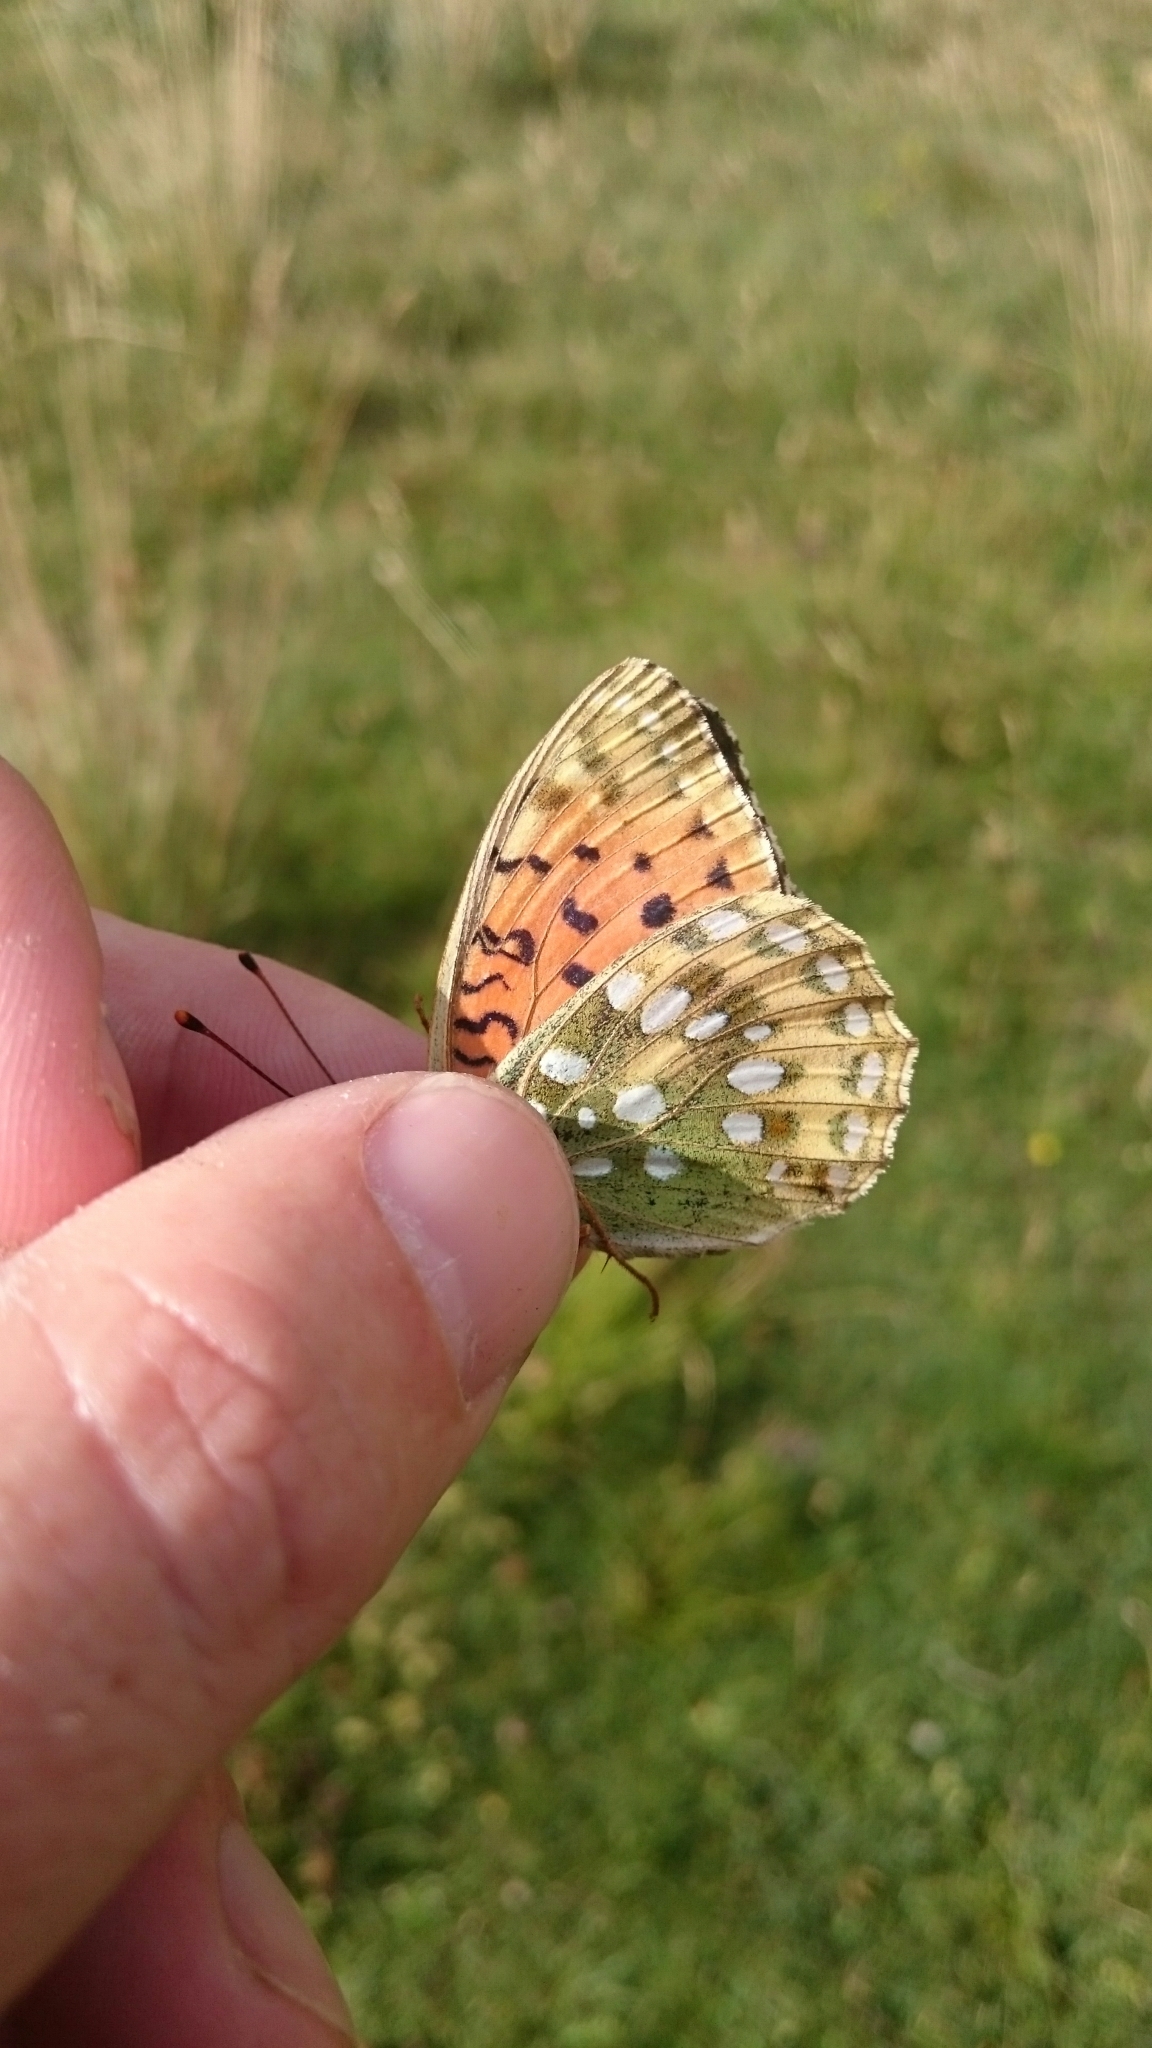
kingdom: Animalia
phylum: Arthropoda
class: Insecta
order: Lepidoptera
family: Nymphalidae
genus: Speyeria
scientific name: Speyeria aglaja
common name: Dark green fritillary
